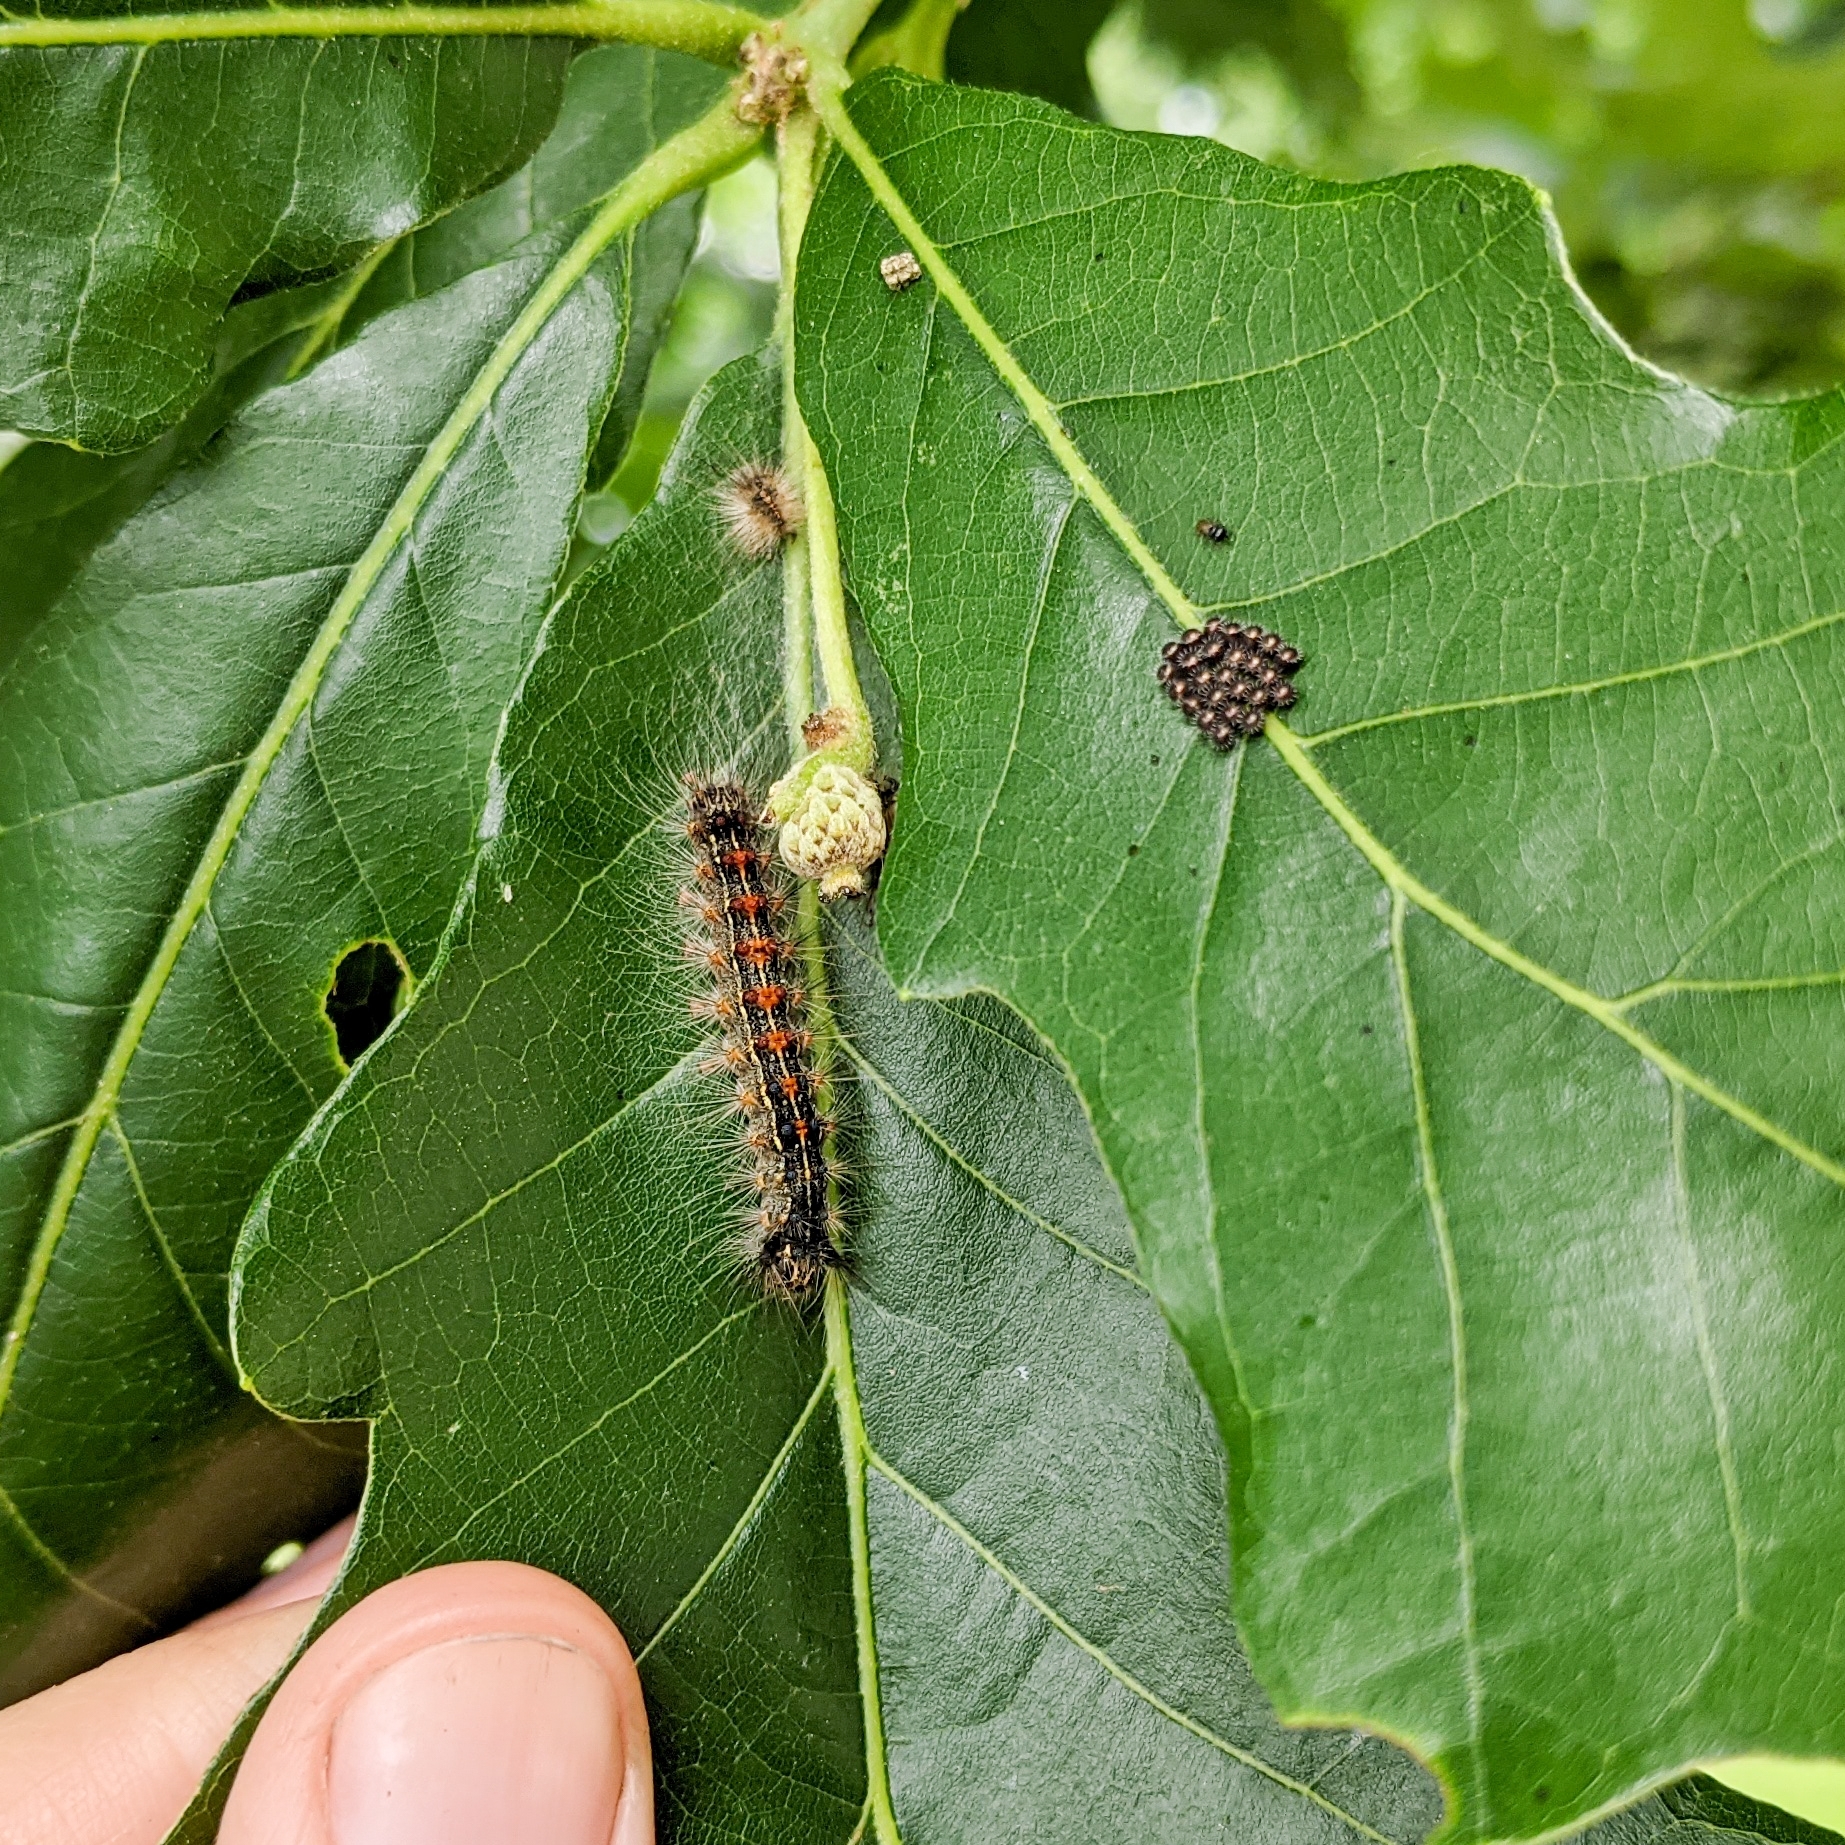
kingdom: Animalia
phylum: Arthropoda
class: Insecta
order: Lepidoptera
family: Erebidae
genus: Lymantria
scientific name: Lymantria dispar
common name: Gypsy moth
